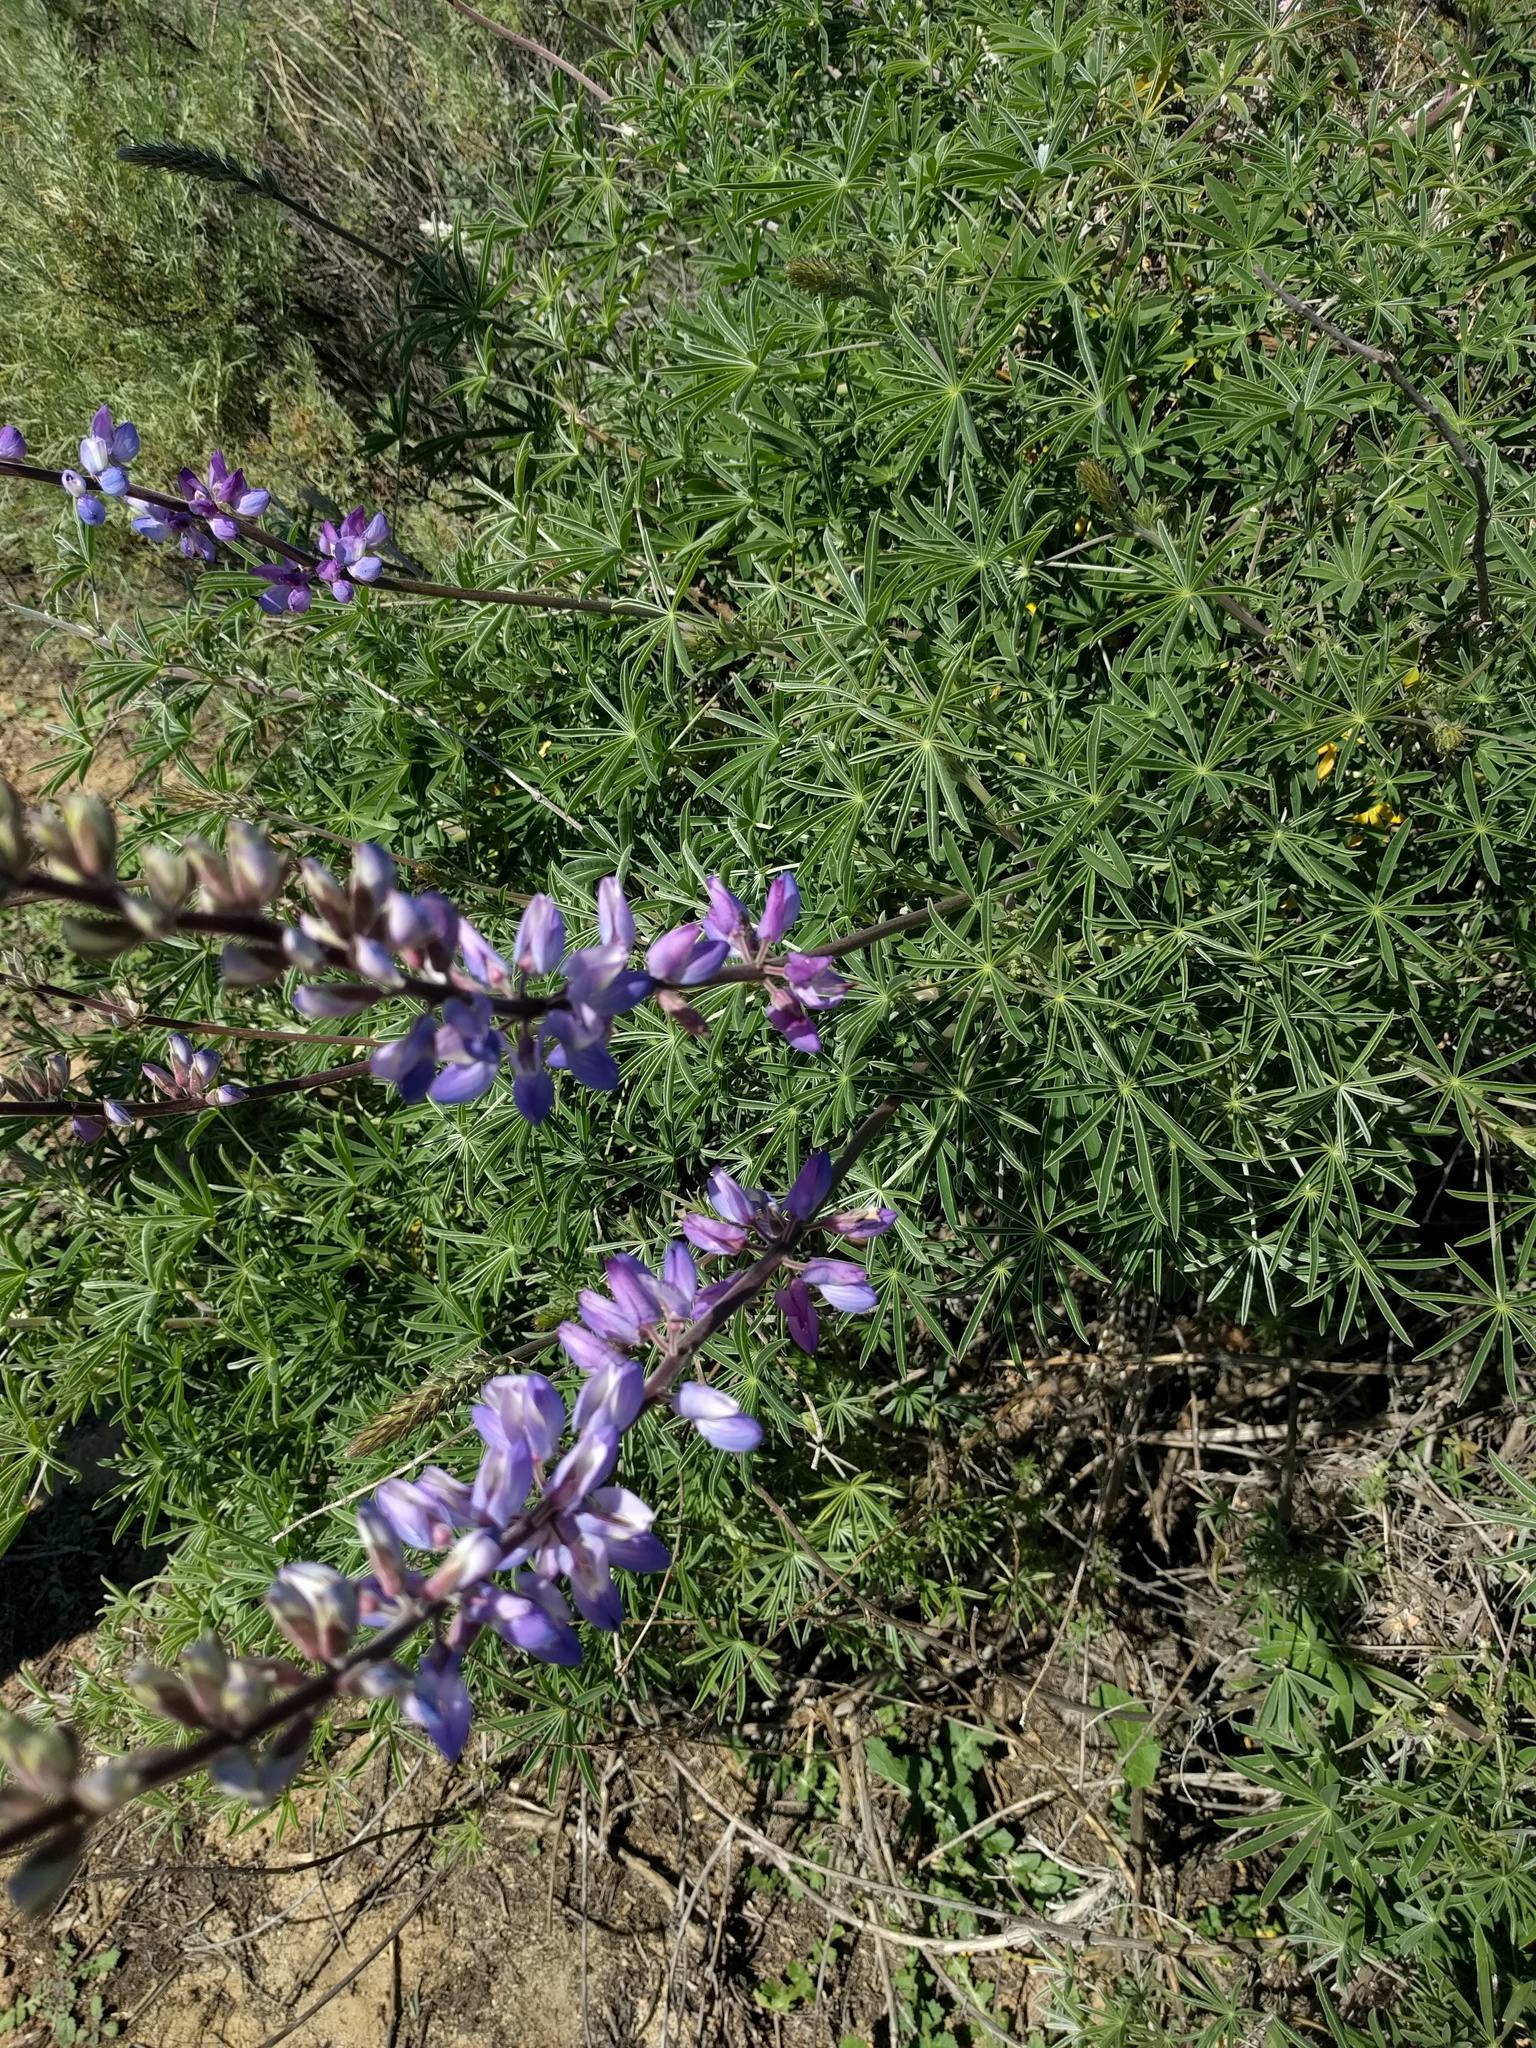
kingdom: Plantae
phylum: Tracheophyta
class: Magnoliopsida
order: Fabales
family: Fabaceae
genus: Lupinus
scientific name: Lupinus longifolius
